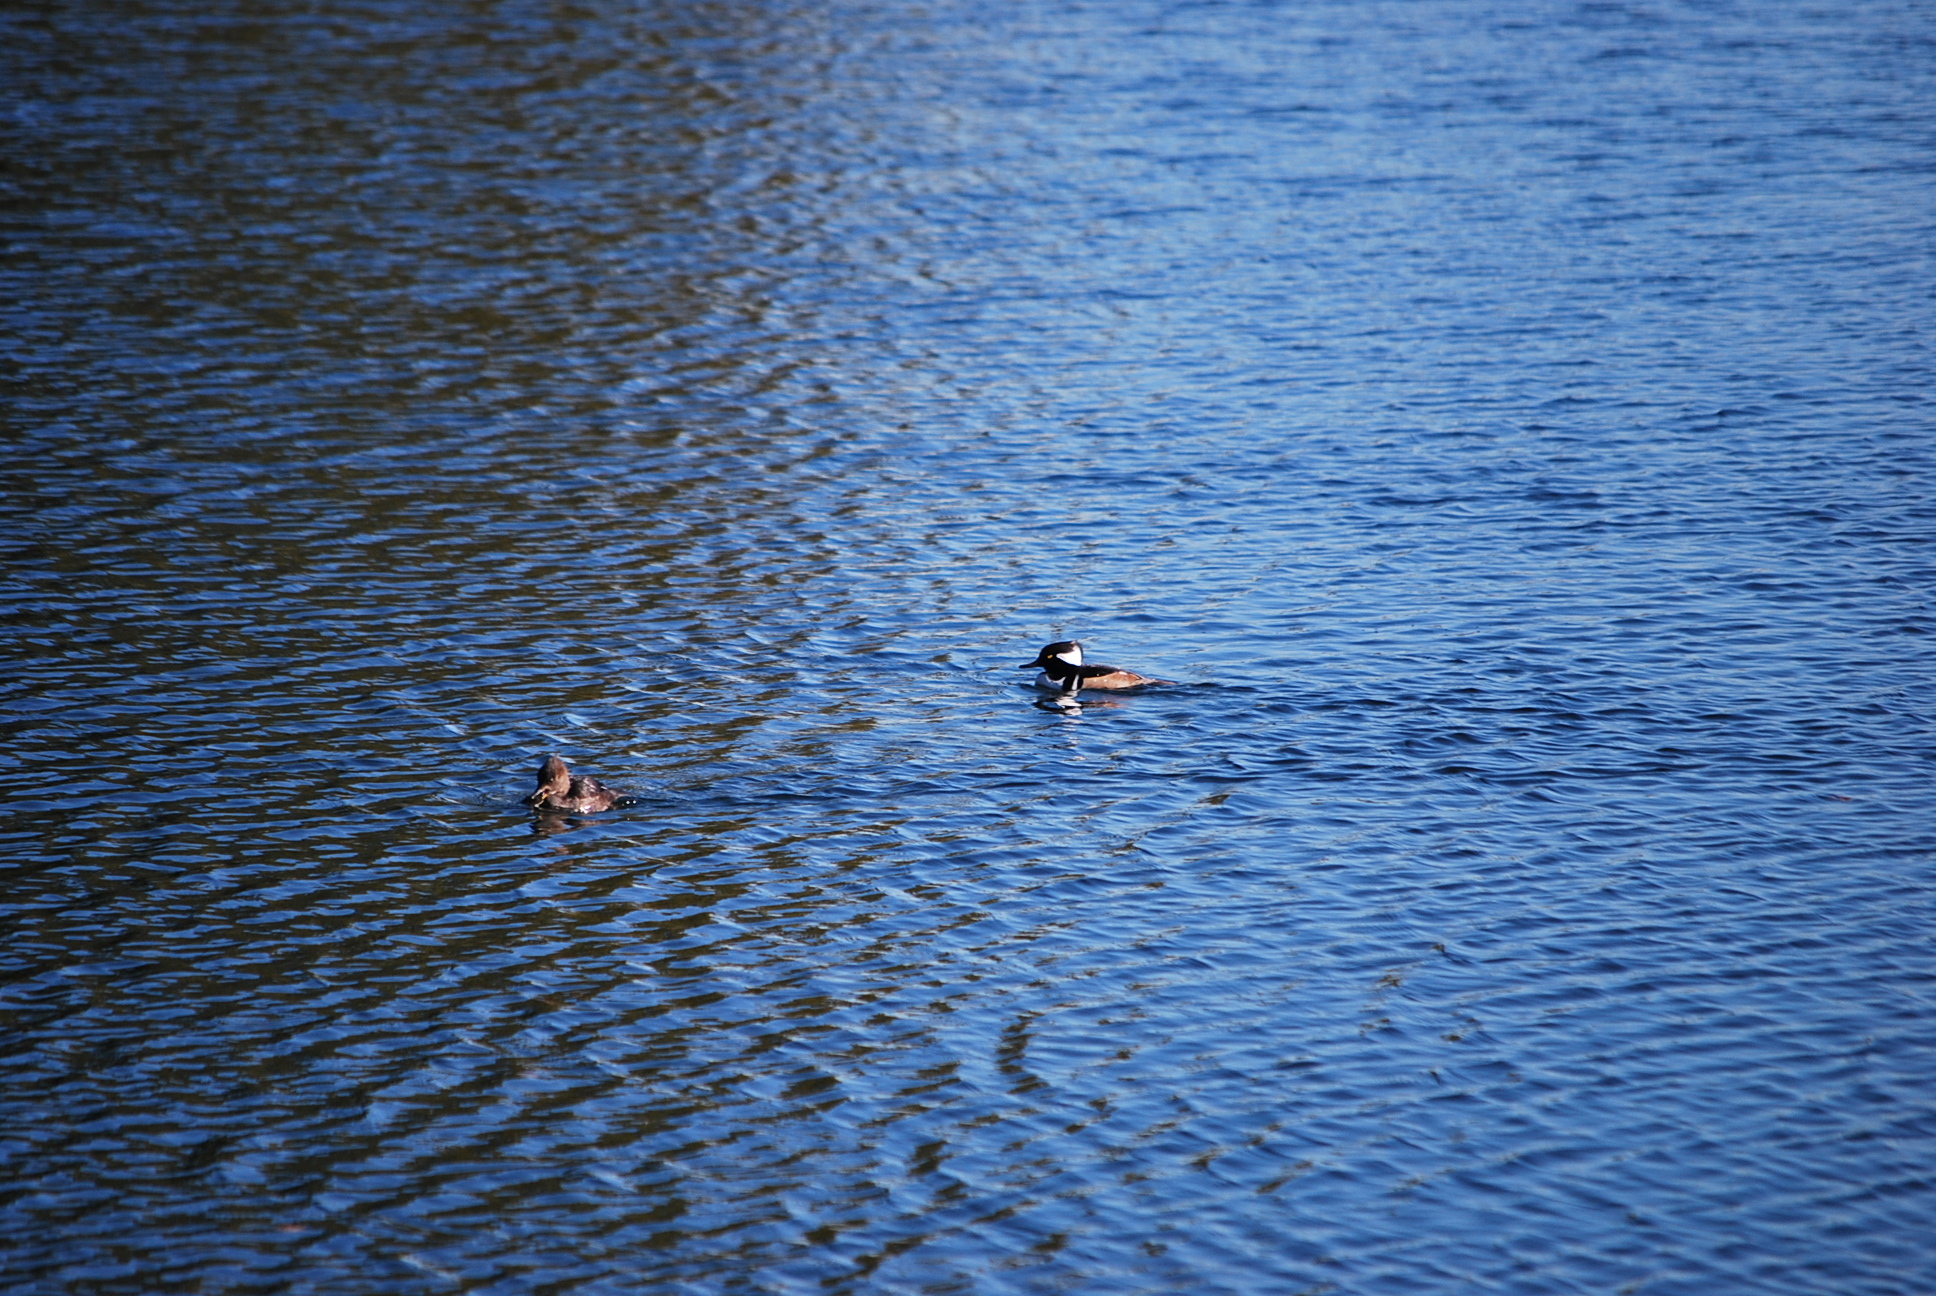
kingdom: Animalia
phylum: Chordata
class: Aves
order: Anseriformes
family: Anatidae
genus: Lophodytes
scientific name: Lophodytes cucullatus
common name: Hooded merganser
